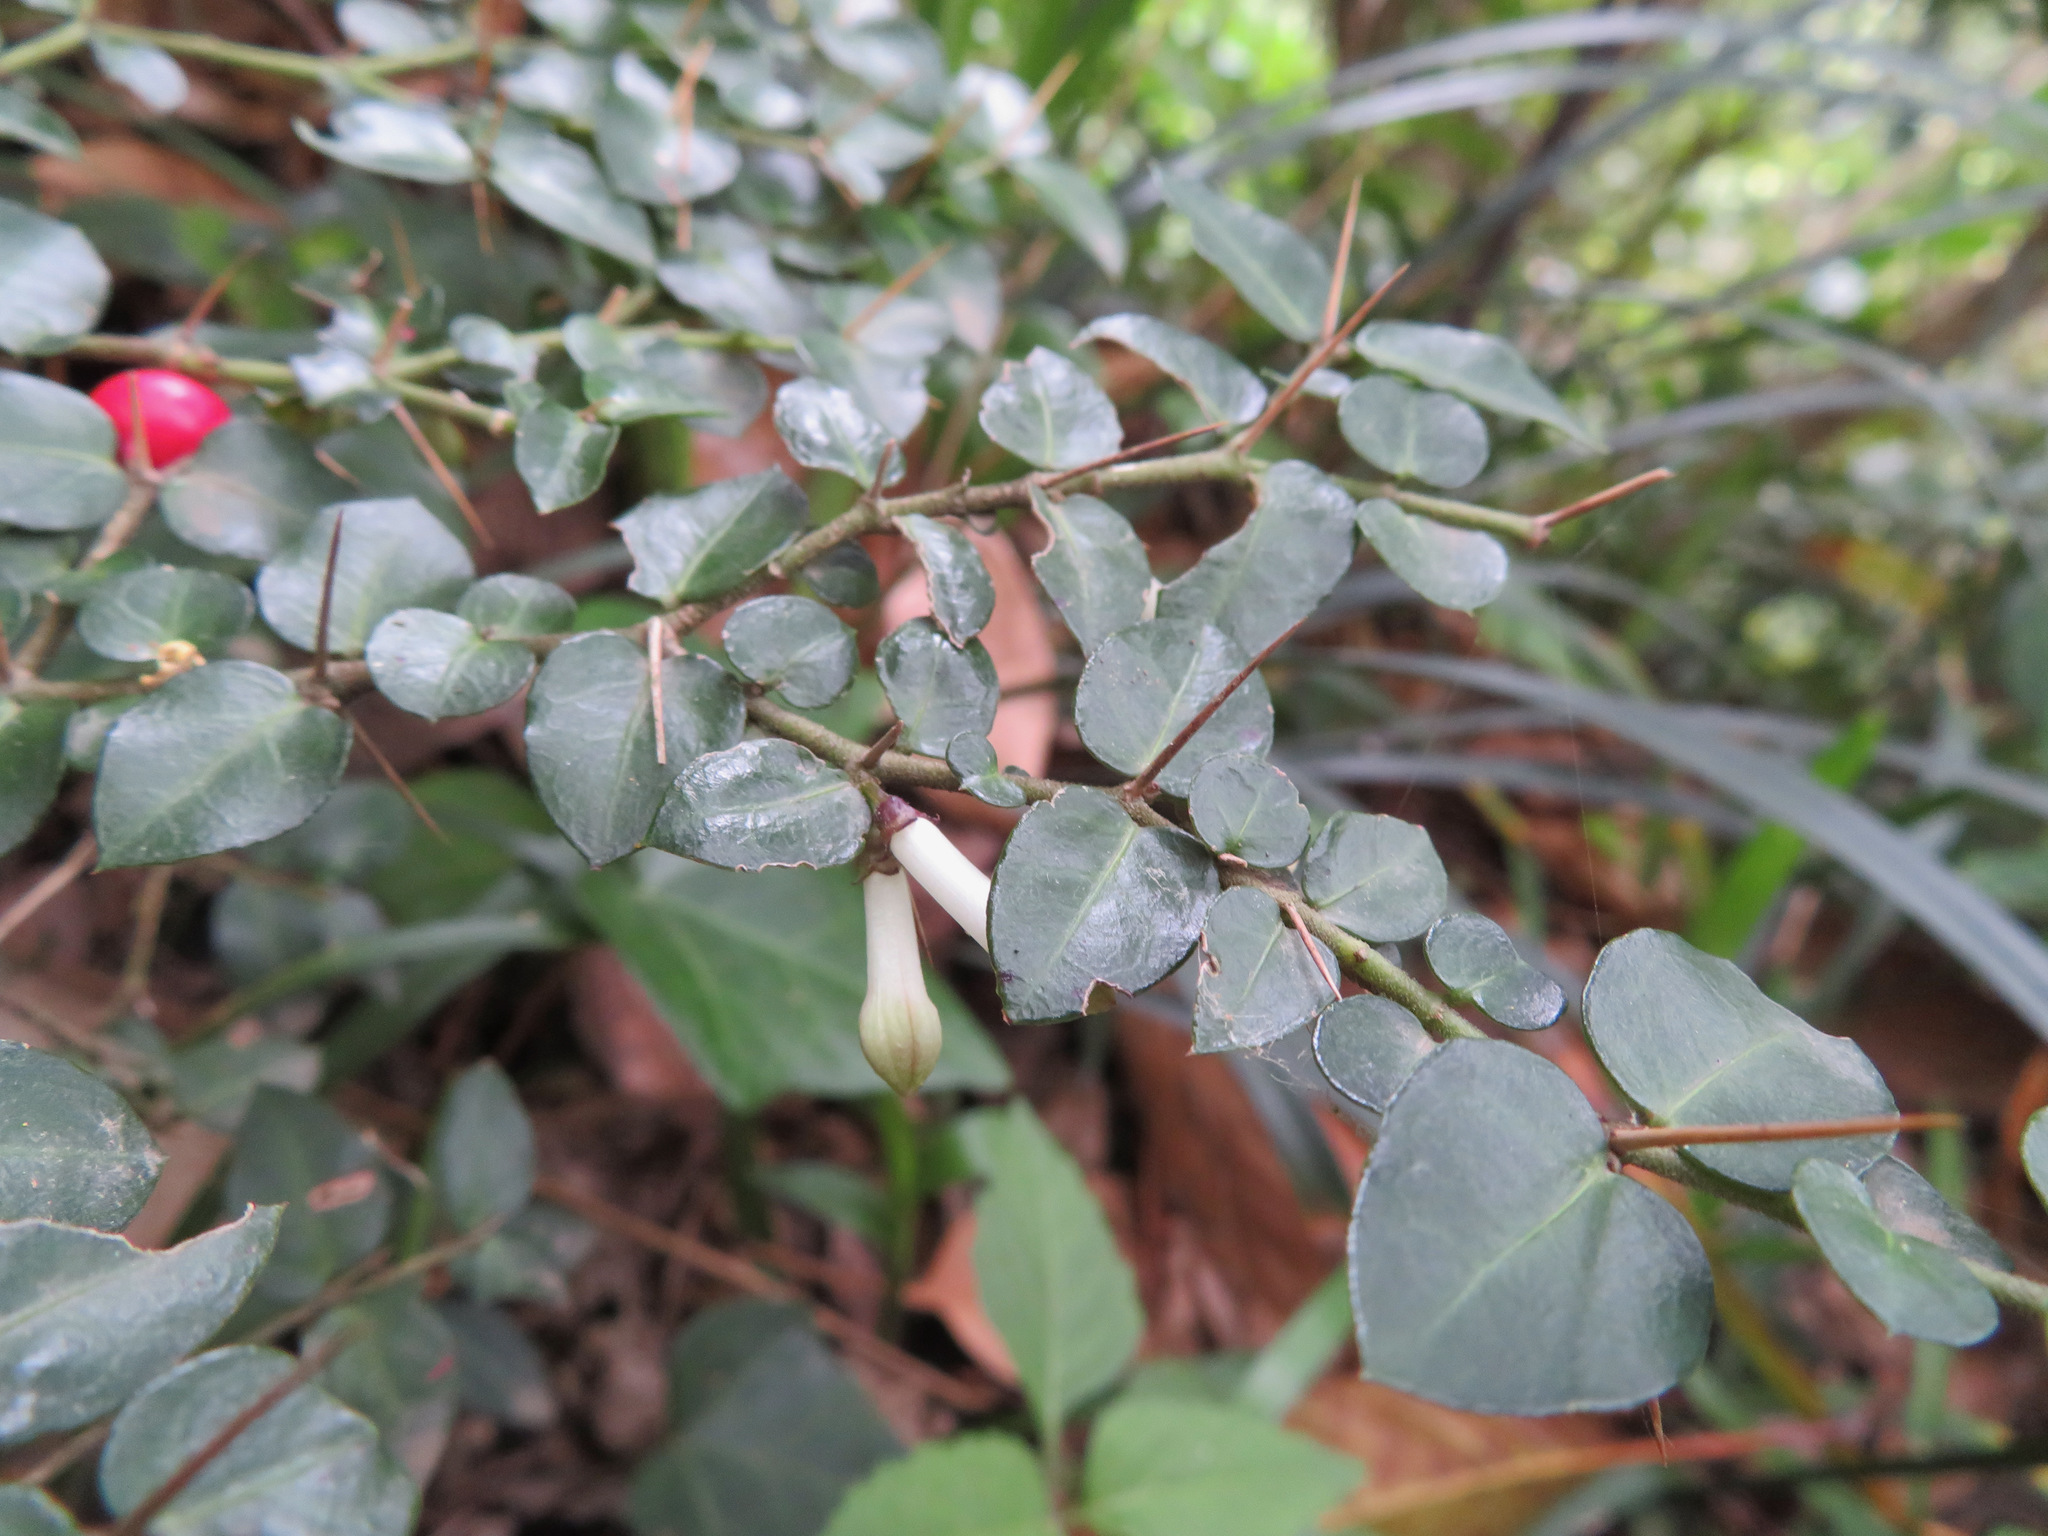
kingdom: Plantae
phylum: Tracheophyta
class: Magnoliopsida
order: Gentianales
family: Rubiaceae
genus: Damnacanthus
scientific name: Damnacanthus indicus
